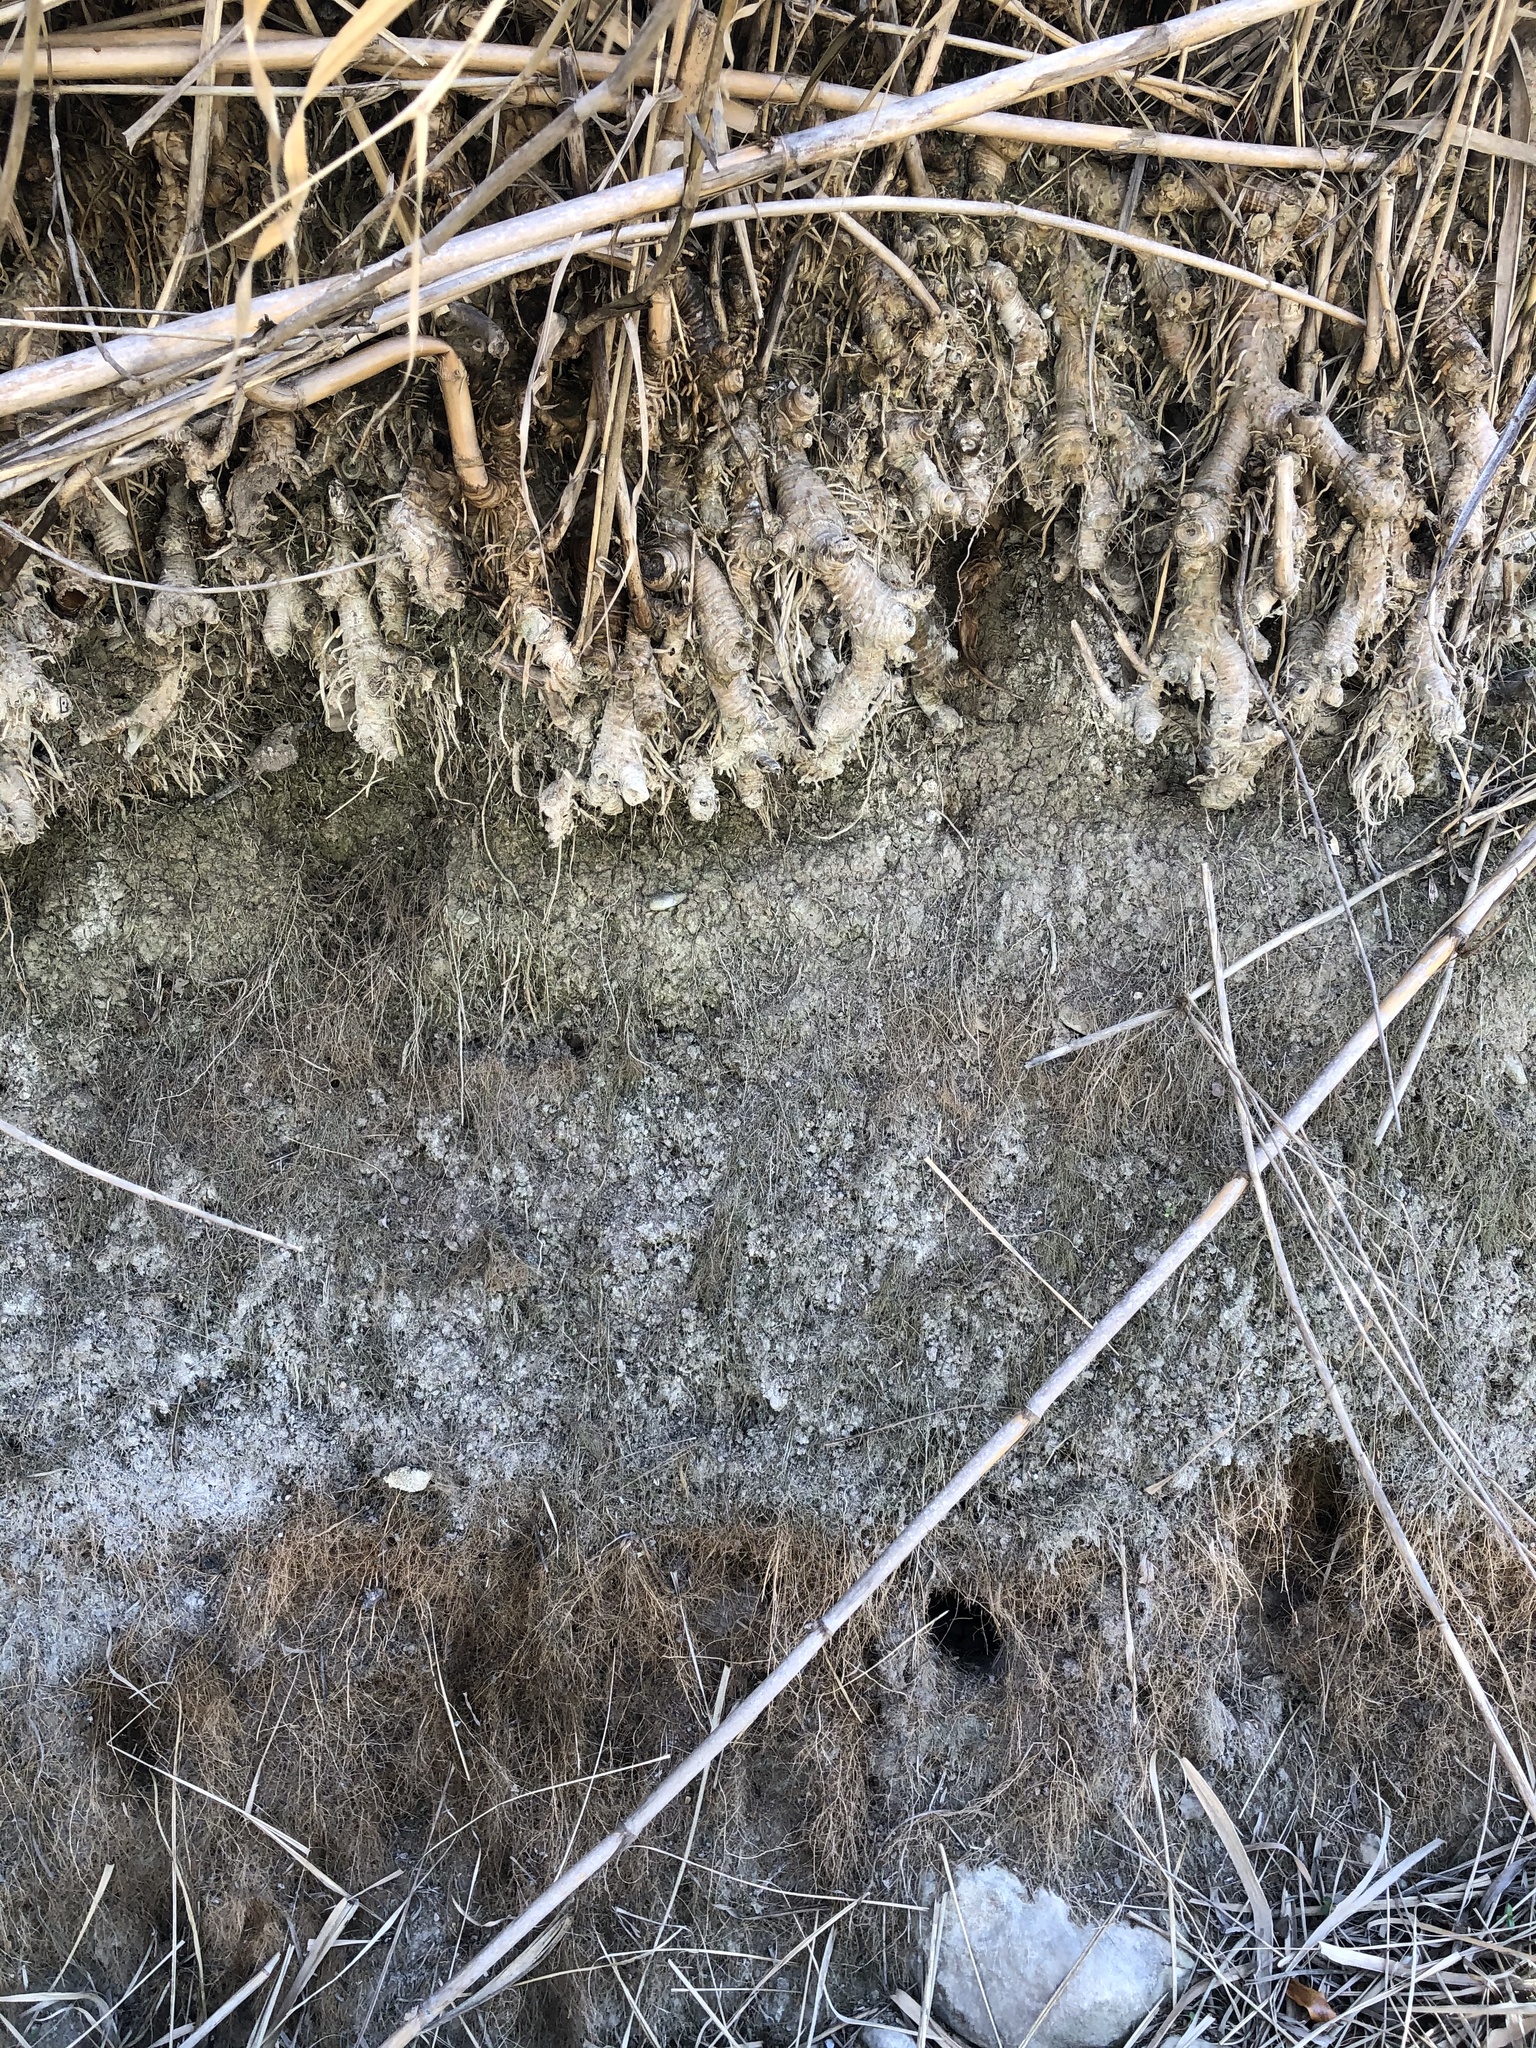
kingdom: Plantae
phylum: Tracheophyta
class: Liliopsida
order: Poales
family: Poaceae
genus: Arundo
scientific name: Arundo donax
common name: Giant reed
